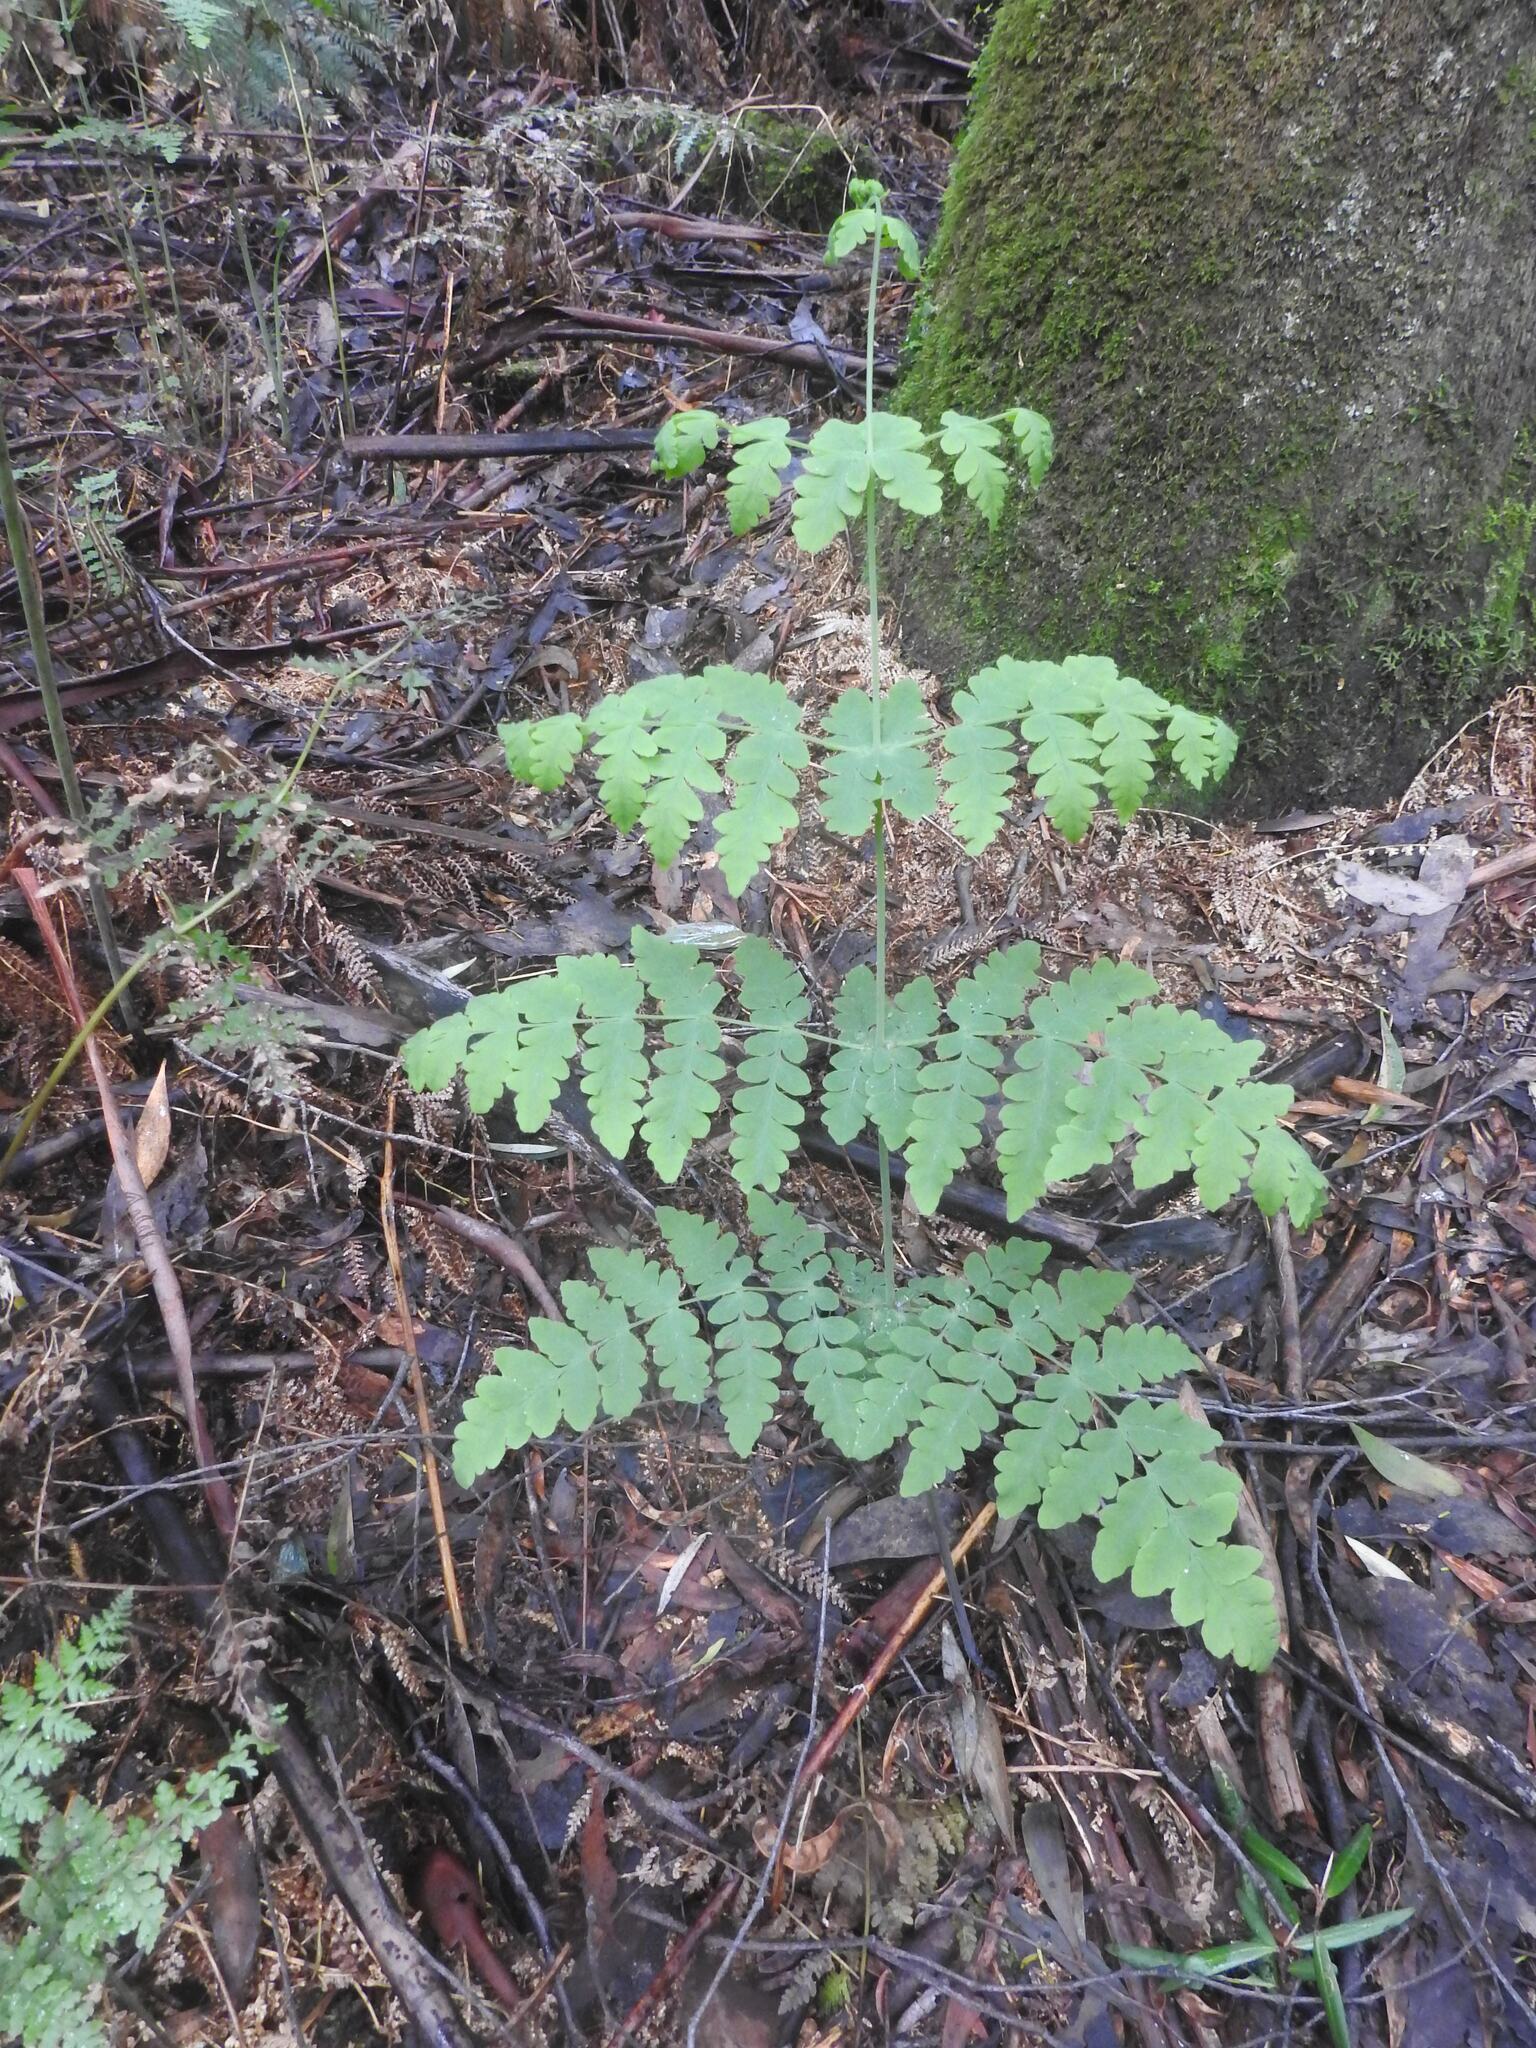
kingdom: Plantae
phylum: Tracheophyta
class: Polypodiopsida
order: Polypodiales
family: Dennstaedtiaceae
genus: Histiopteris
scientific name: Histiopteris incisa
